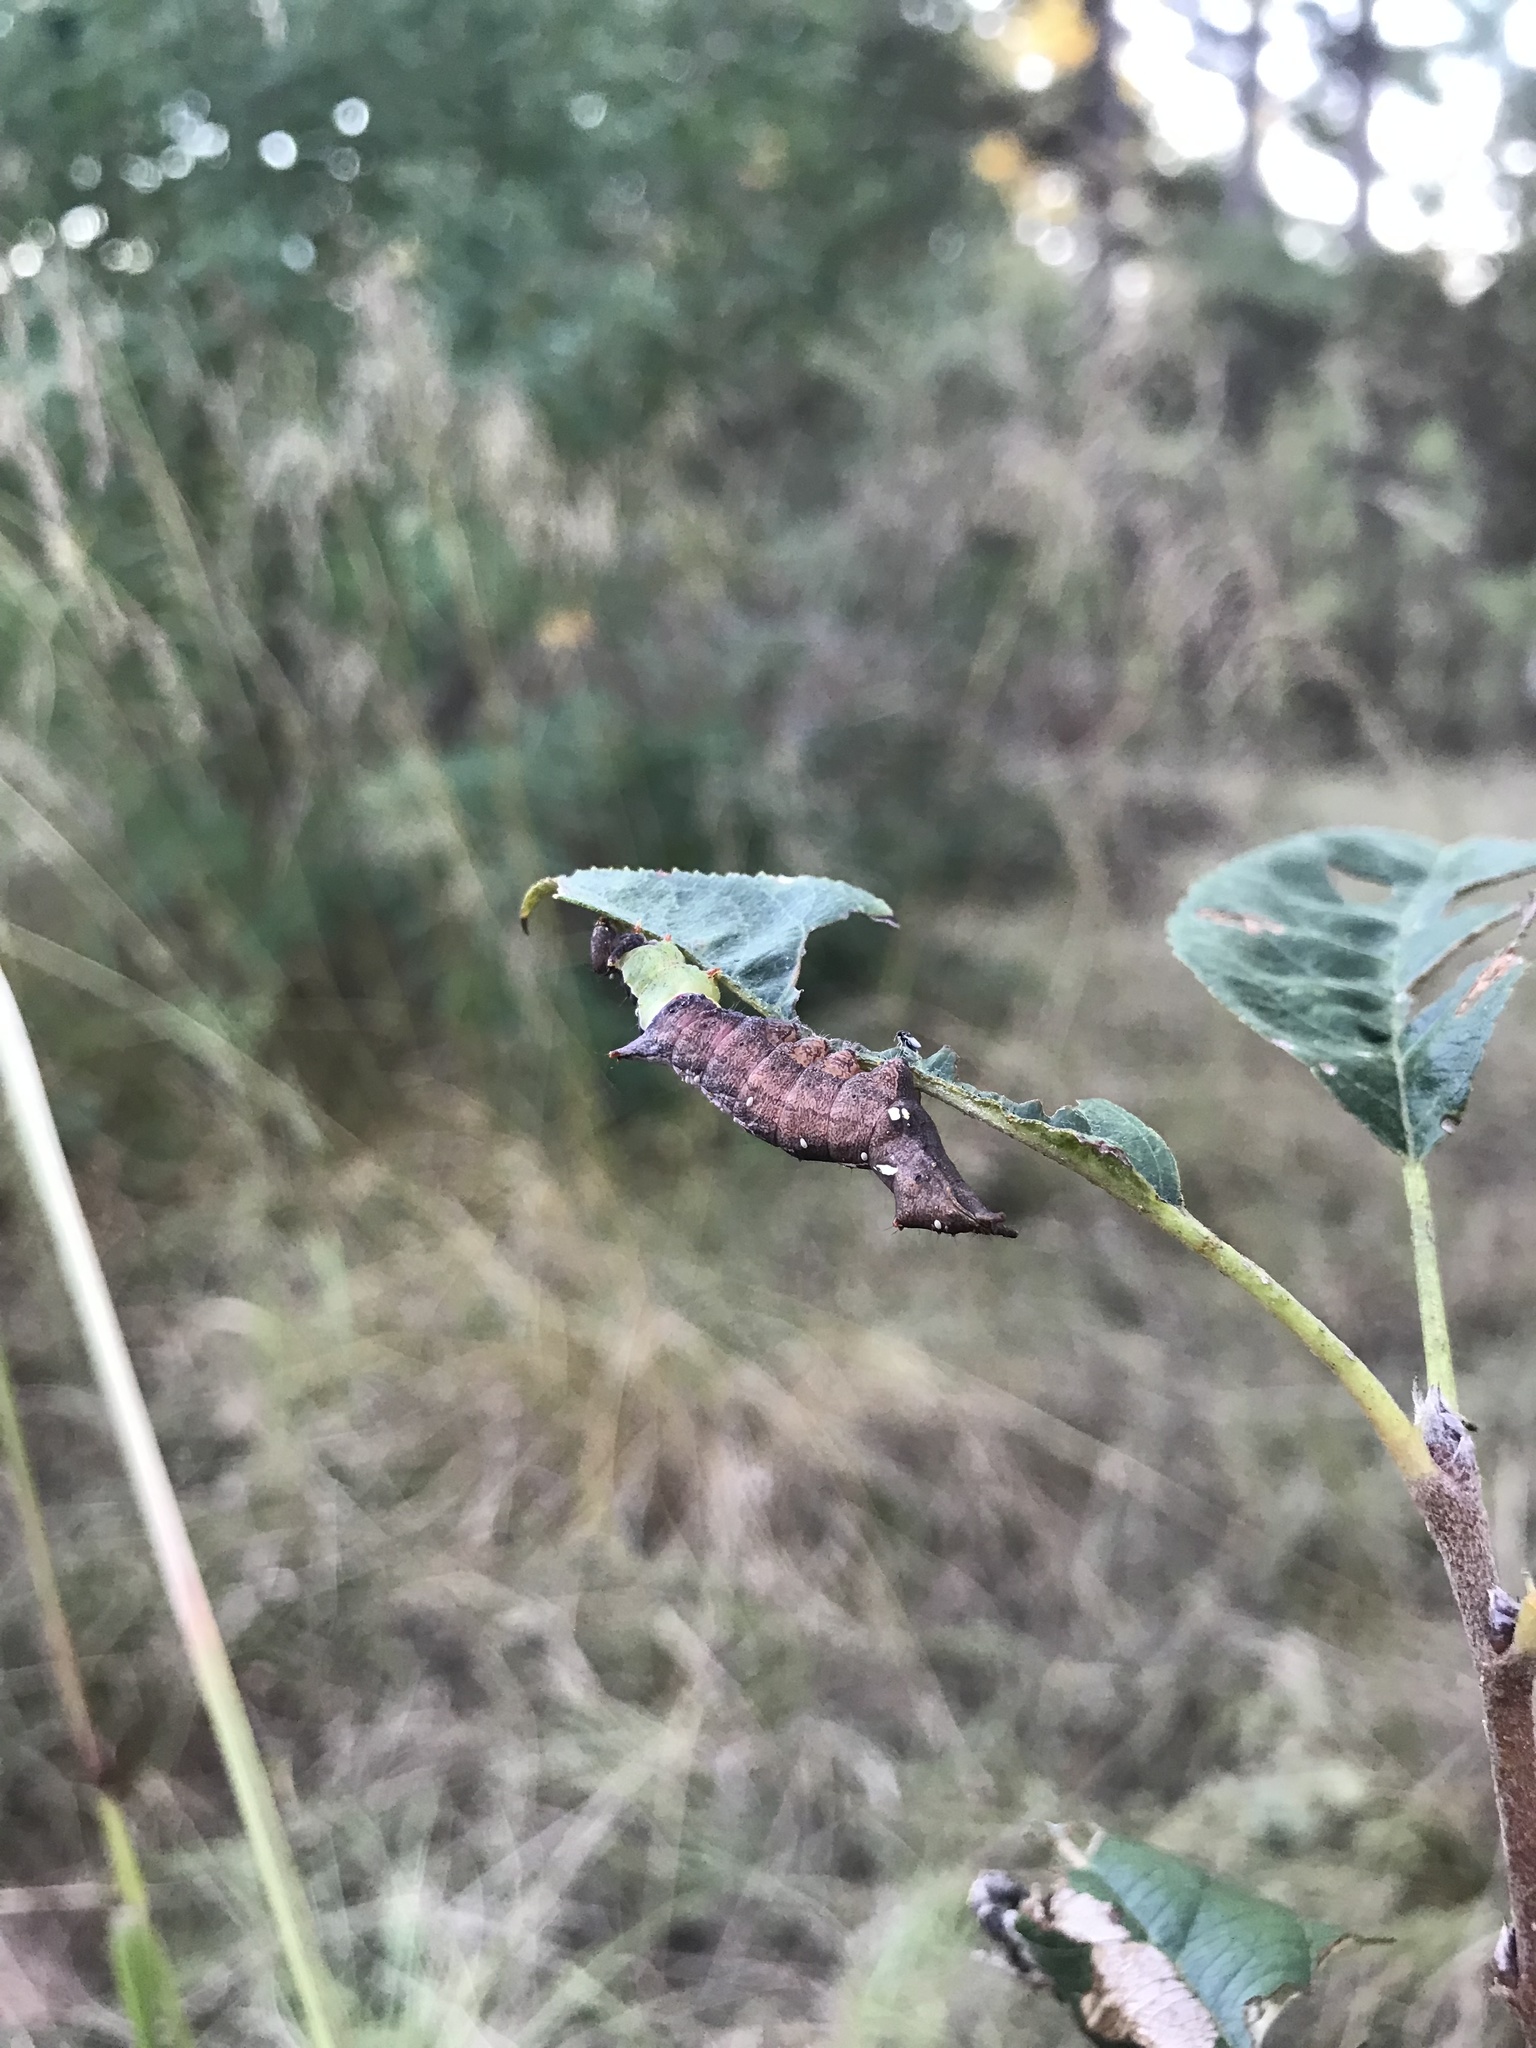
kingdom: Animalia
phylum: Arthropoda
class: Insecta
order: Lepidoptera
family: Notodontidae
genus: Schizura
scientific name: Schizura
